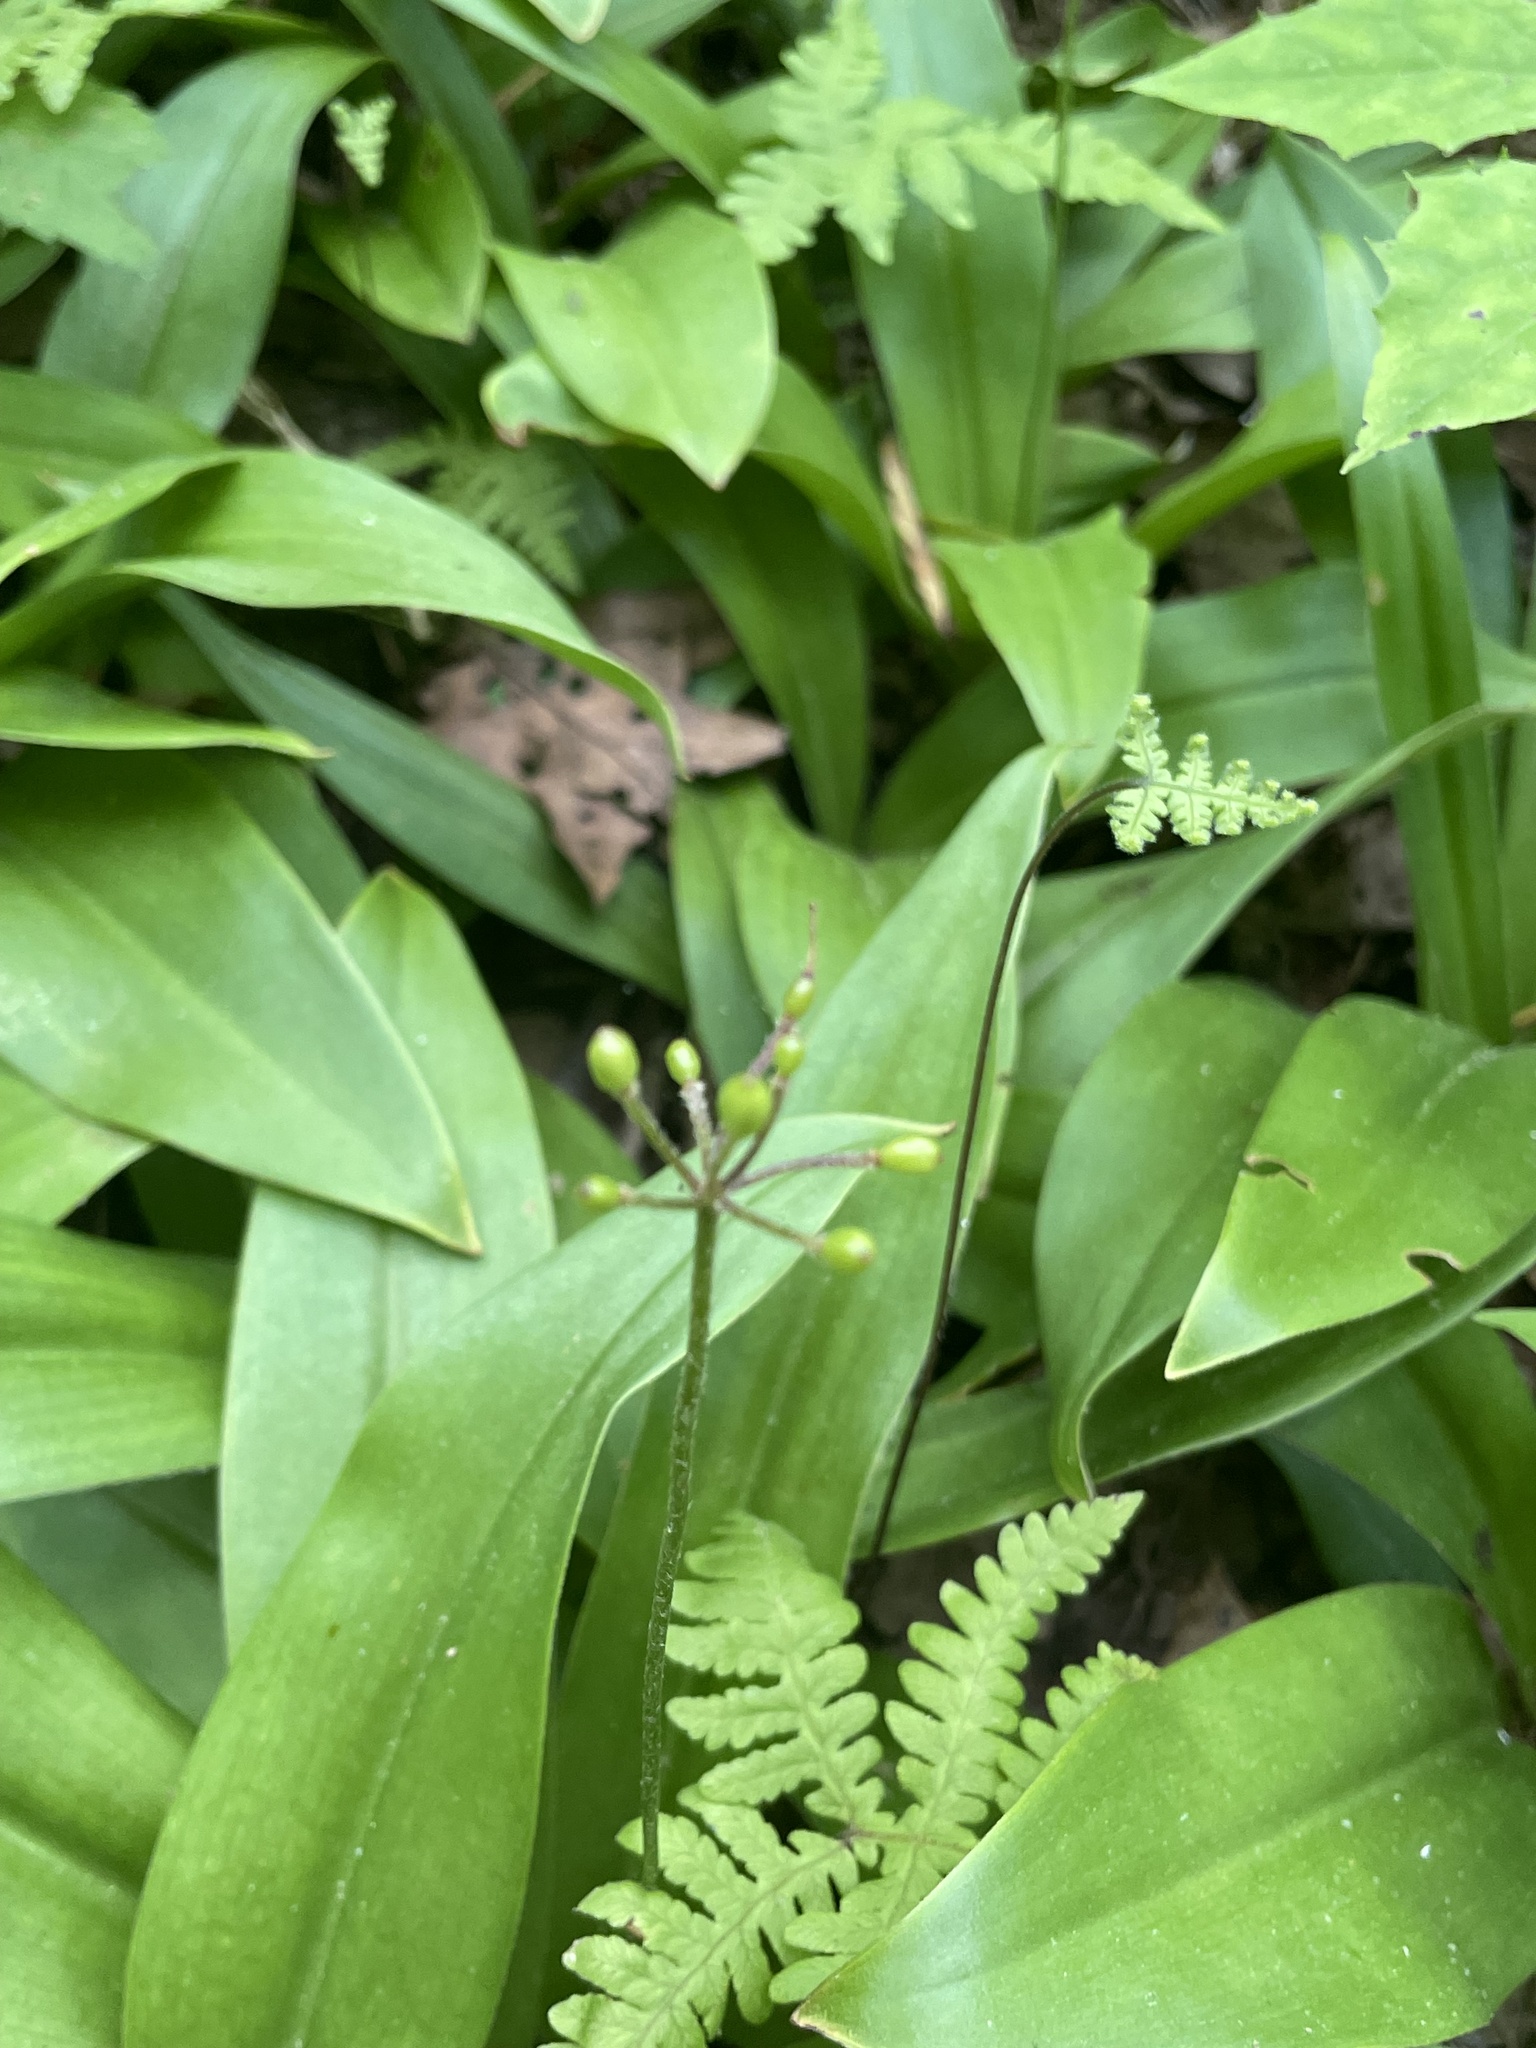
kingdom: Plantae
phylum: Tracheophyta
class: Liliopsida
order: Liliales
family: Liliaceae
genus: Clintonia
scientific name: Clintonia umbellulata
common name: Speckle wood-lily
